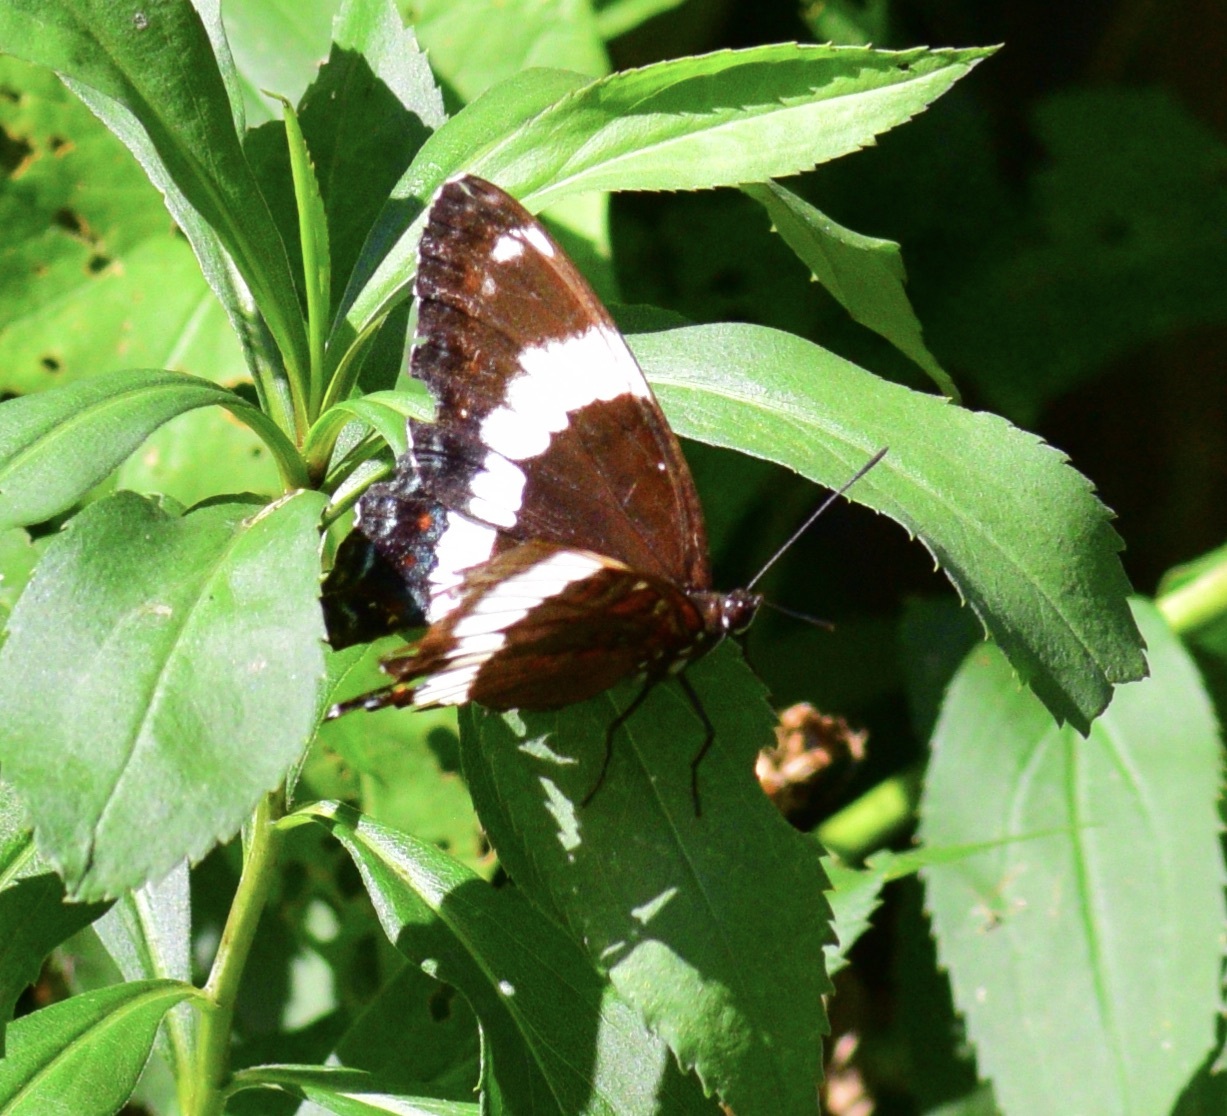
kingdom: Animalia
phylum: Arthropoda
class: Insecta
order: Lepidoptera
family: Nymphalidae
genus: Limenitis
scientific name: Limenitis arthemis
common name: Red-spotted admiral
